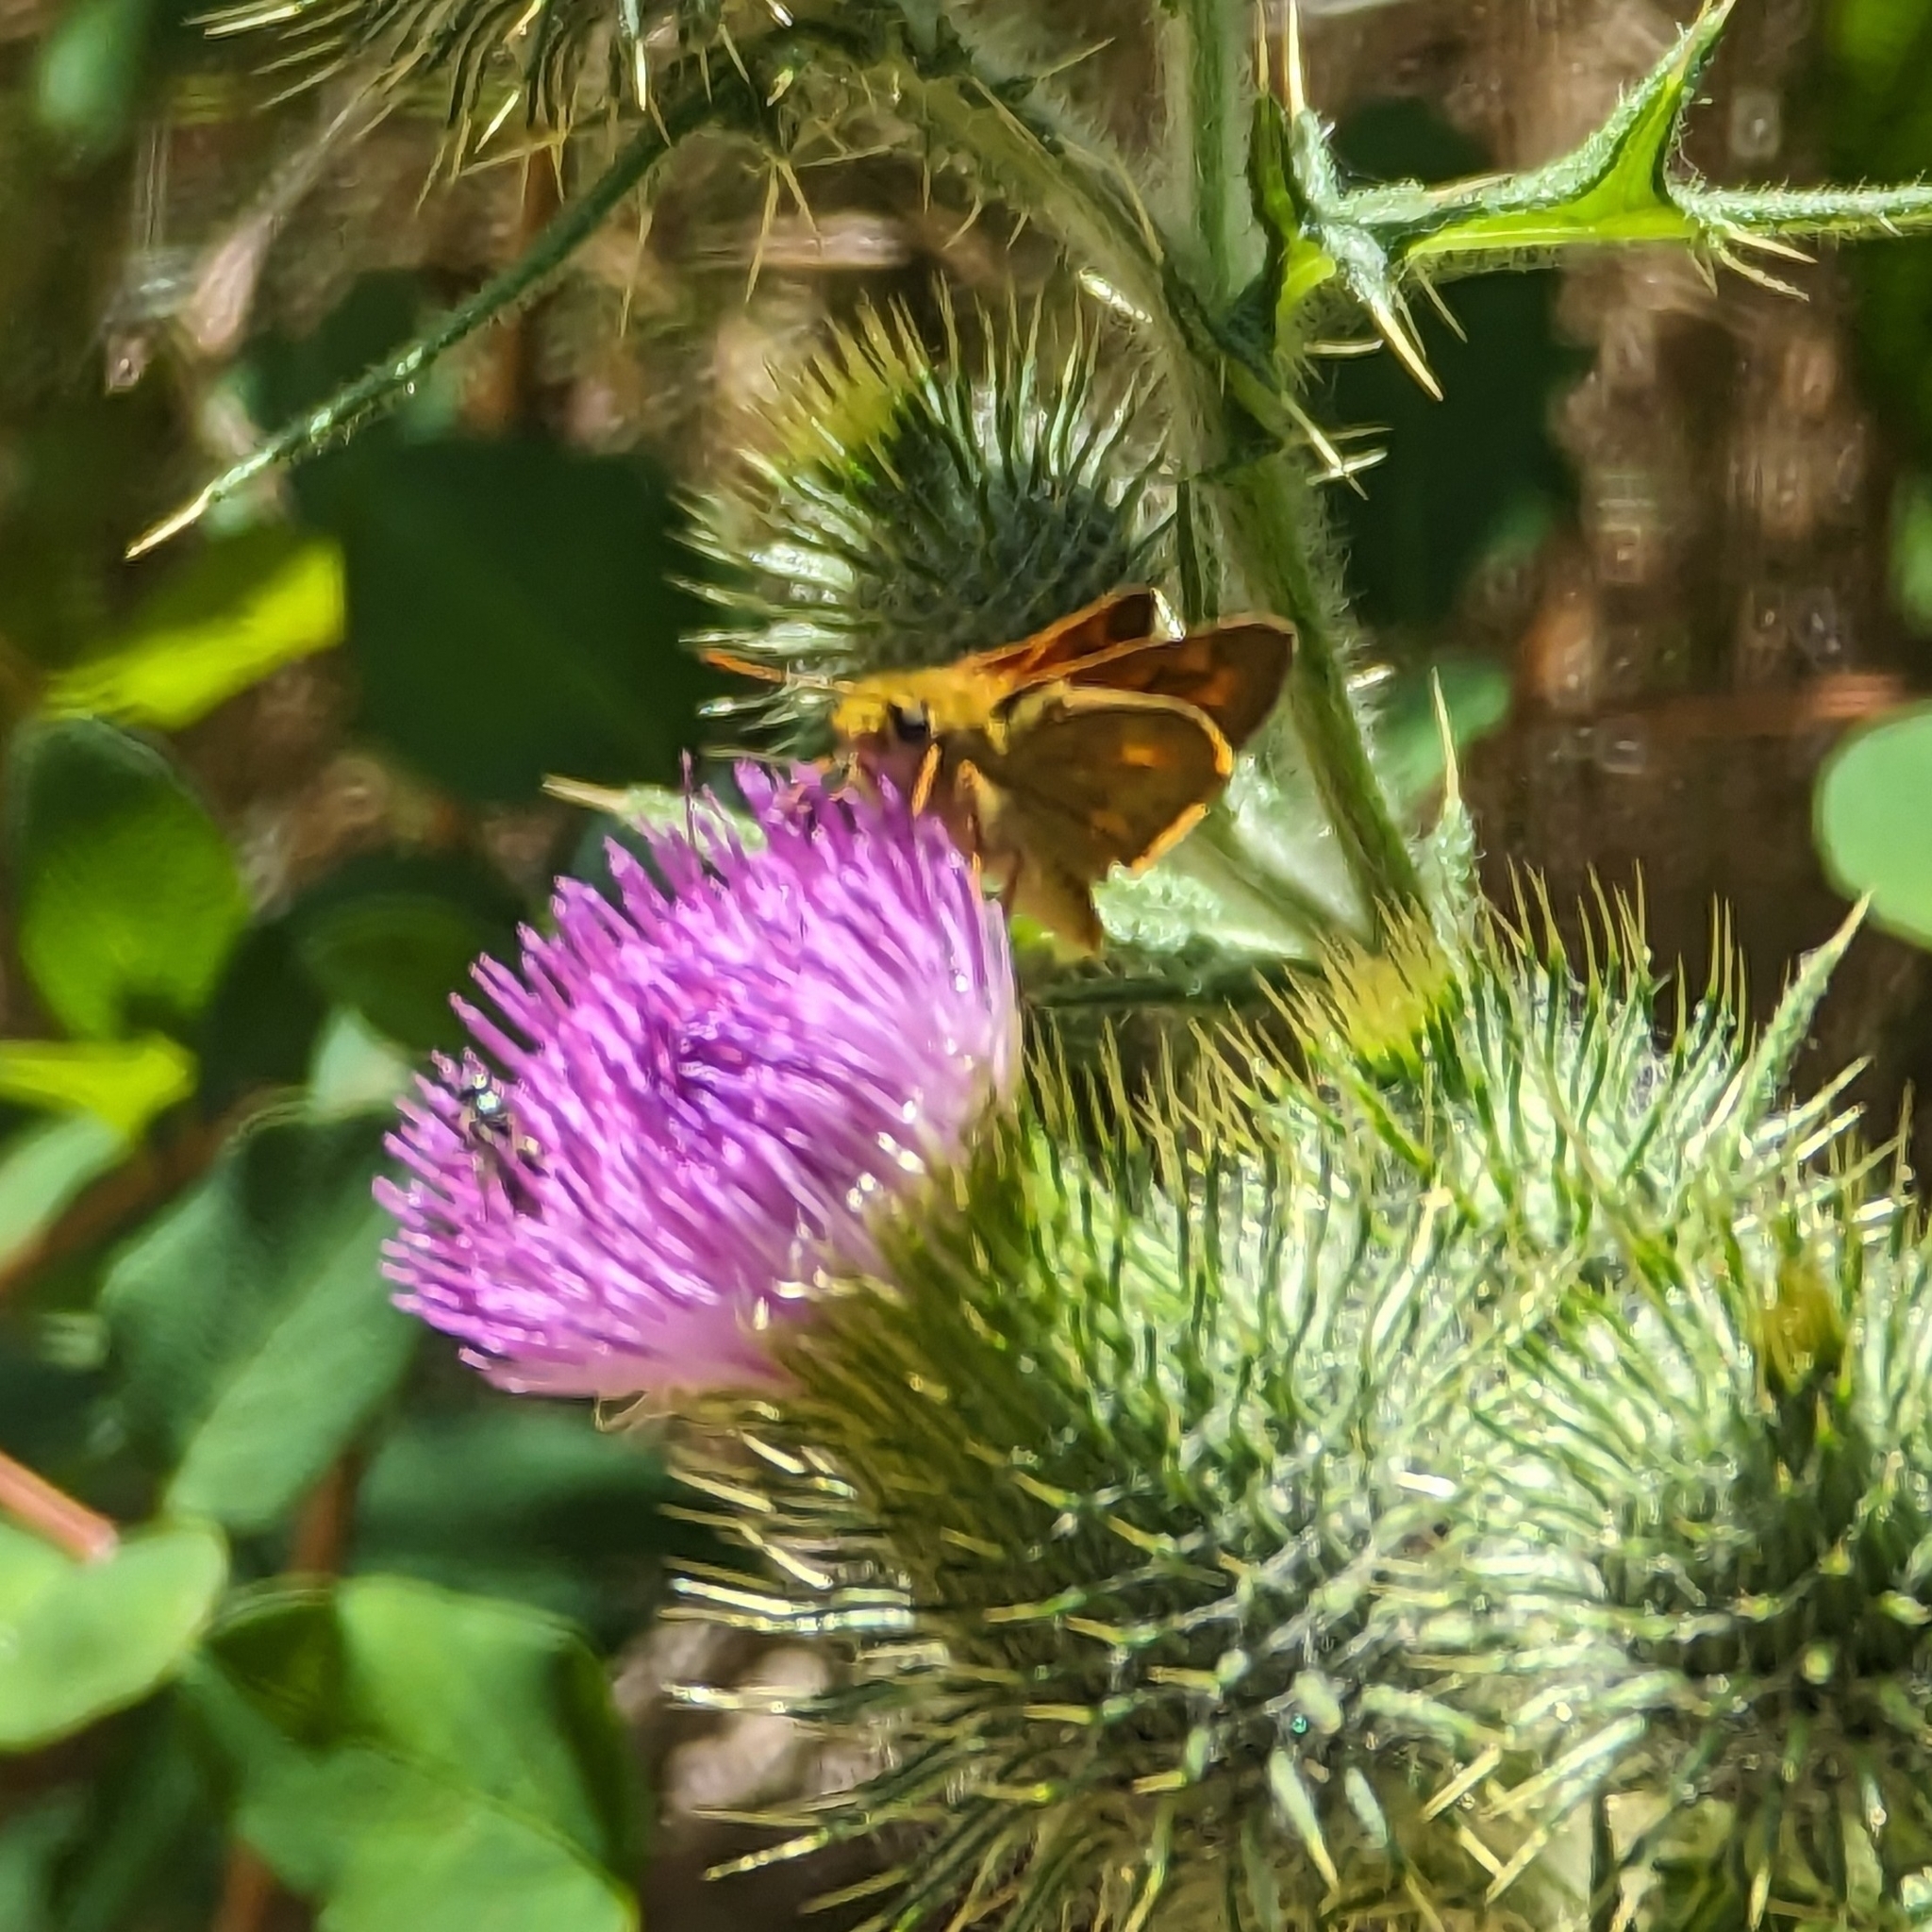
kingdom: Animalia
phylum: Arthropoda
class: Insecta
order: Lepidoptera
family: Hesperiidae
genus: Ochlodes
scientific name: Ochlodes sylvanoides
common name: Woodland skipper
